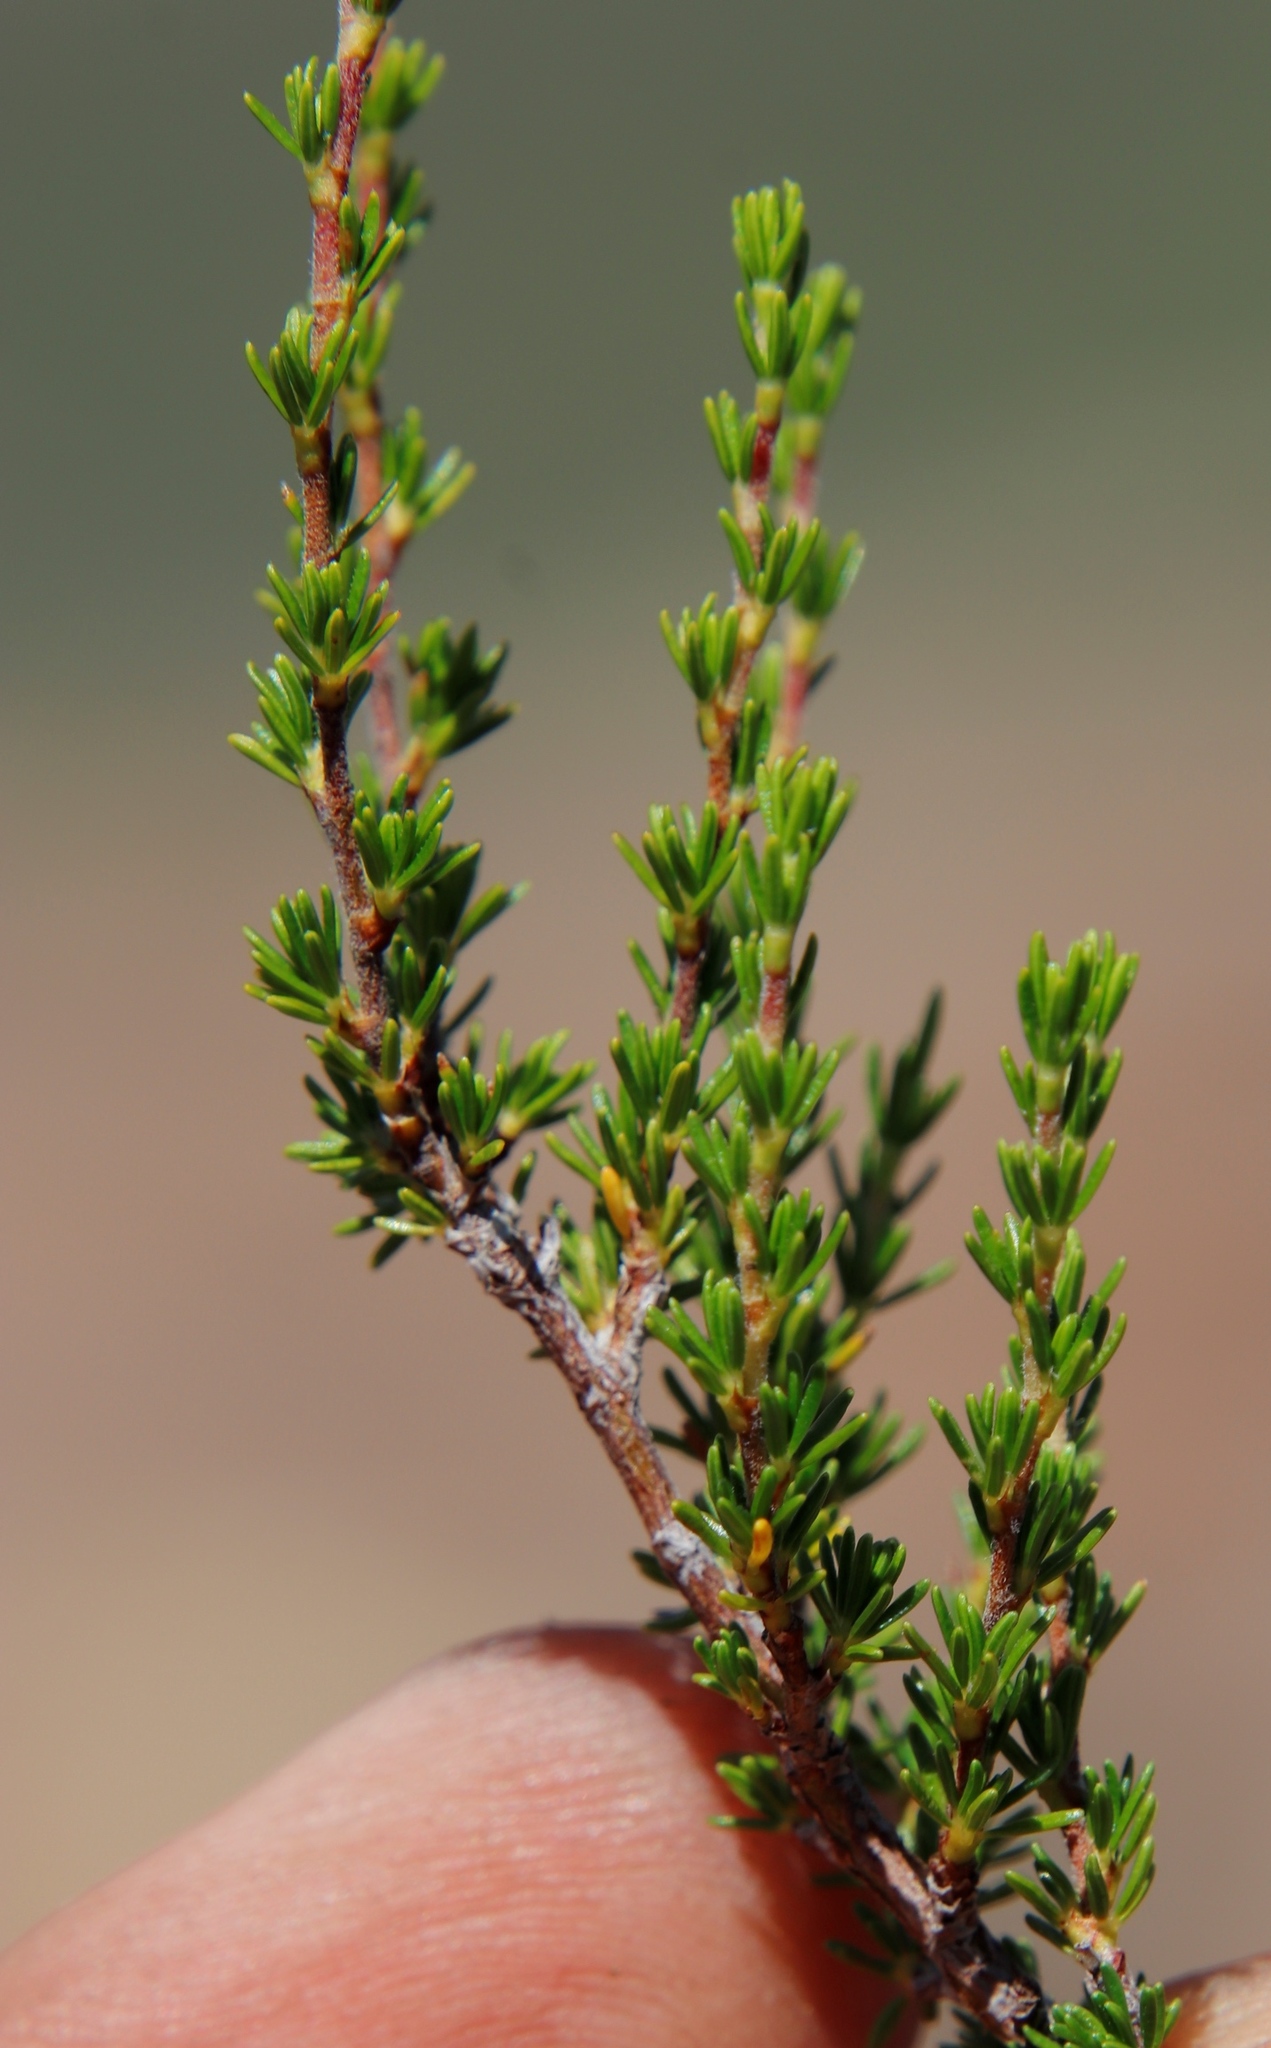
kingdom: Plantae
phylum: Tracheophyta
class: Magnoliopsida
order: Rosales
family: Rosaceae
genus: Cliffortia
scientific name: Cliffortia linearifolia
